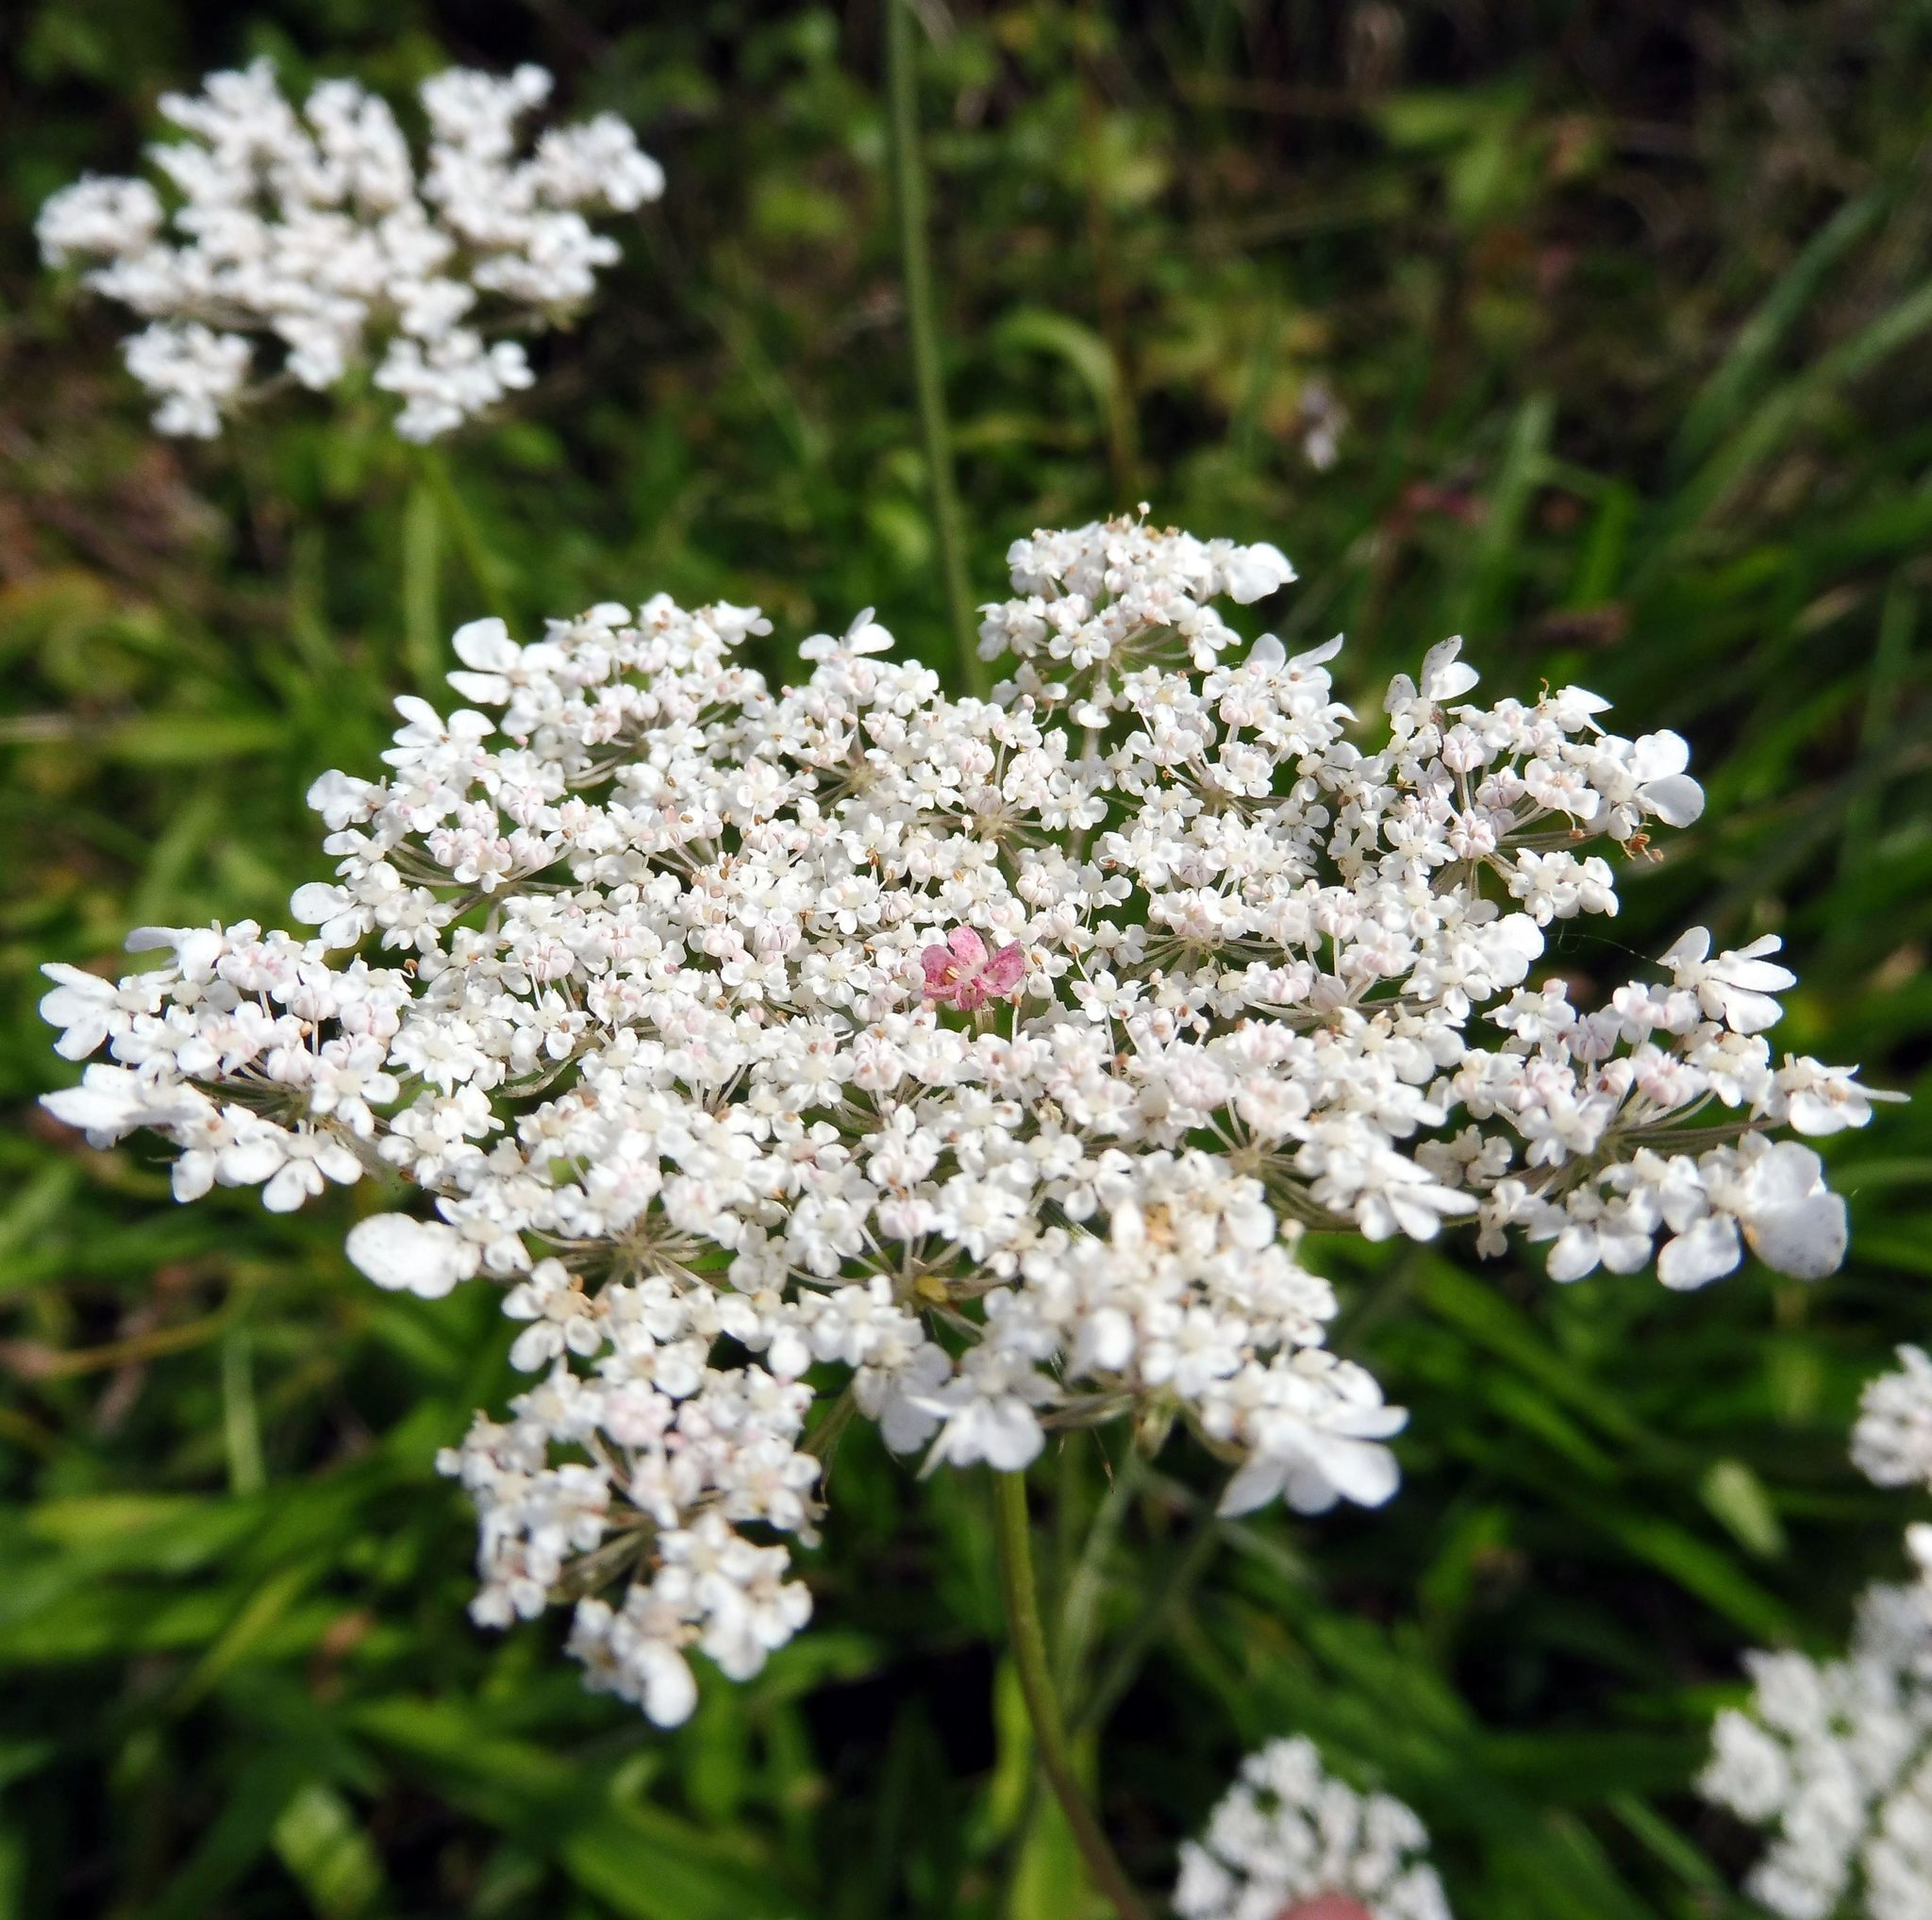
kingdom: Plantae
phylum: Tracheophyta
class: Magnoliopsida
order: Apiales
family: Apiaceae
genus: Daucus
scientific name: Daucus carota
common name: Wild carrot
